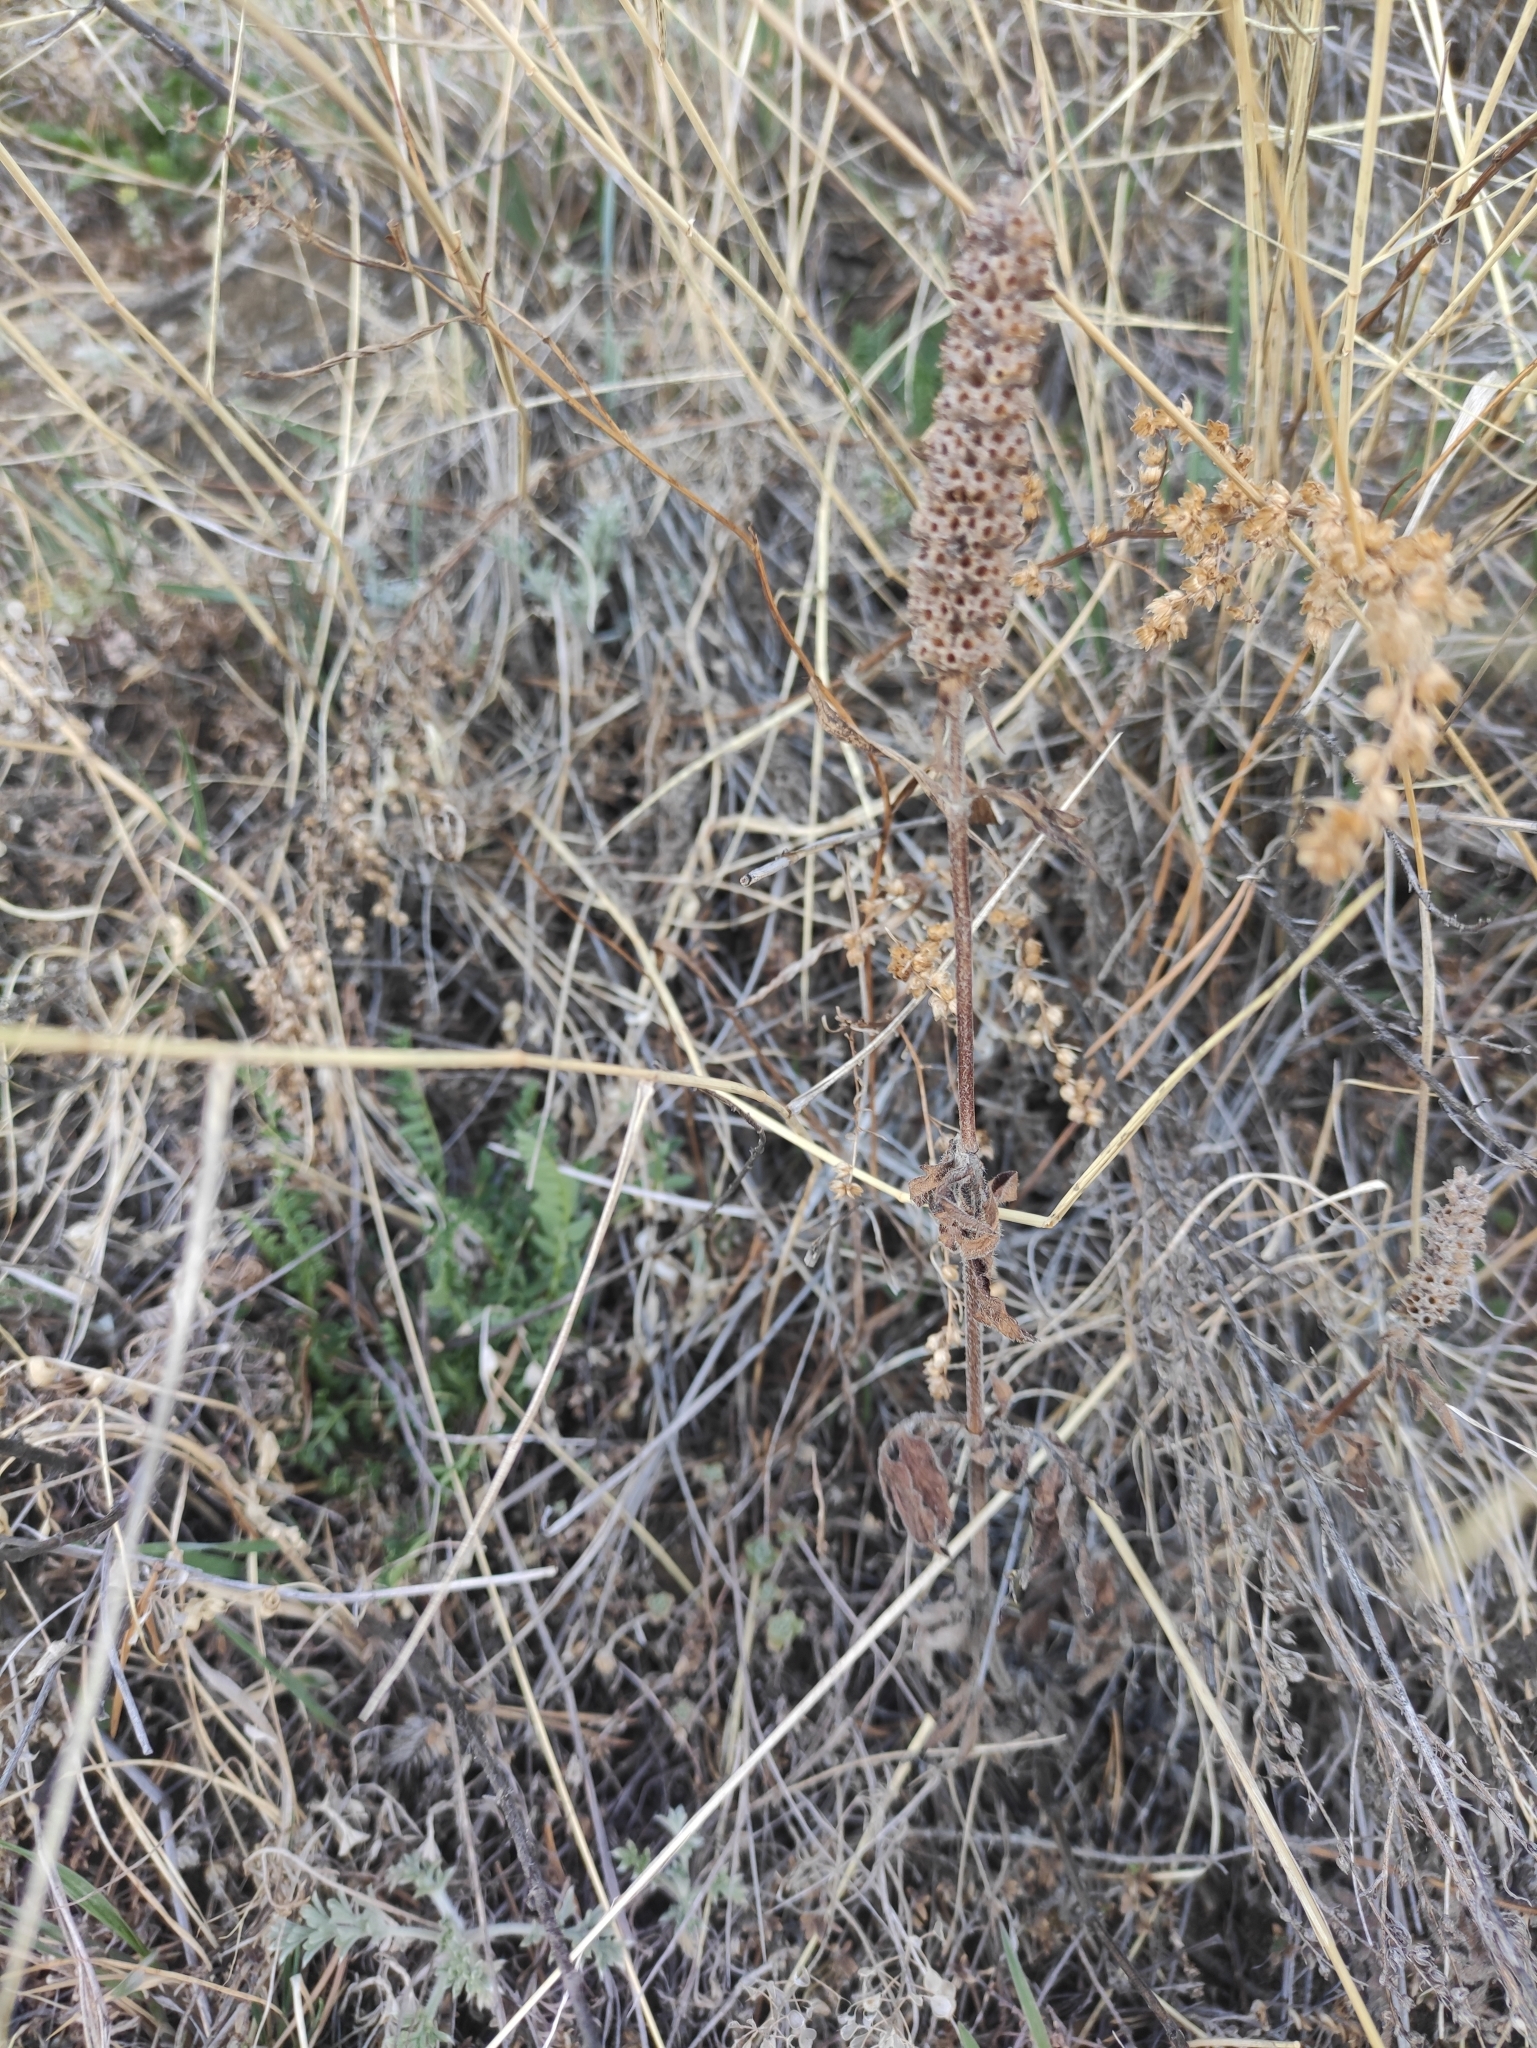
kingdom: Plantae
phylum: Tracheophyta
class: Magnoliopsida
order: Lamiales
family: Lamiaceae
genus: Nepeta
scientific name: Nepeta multifida
